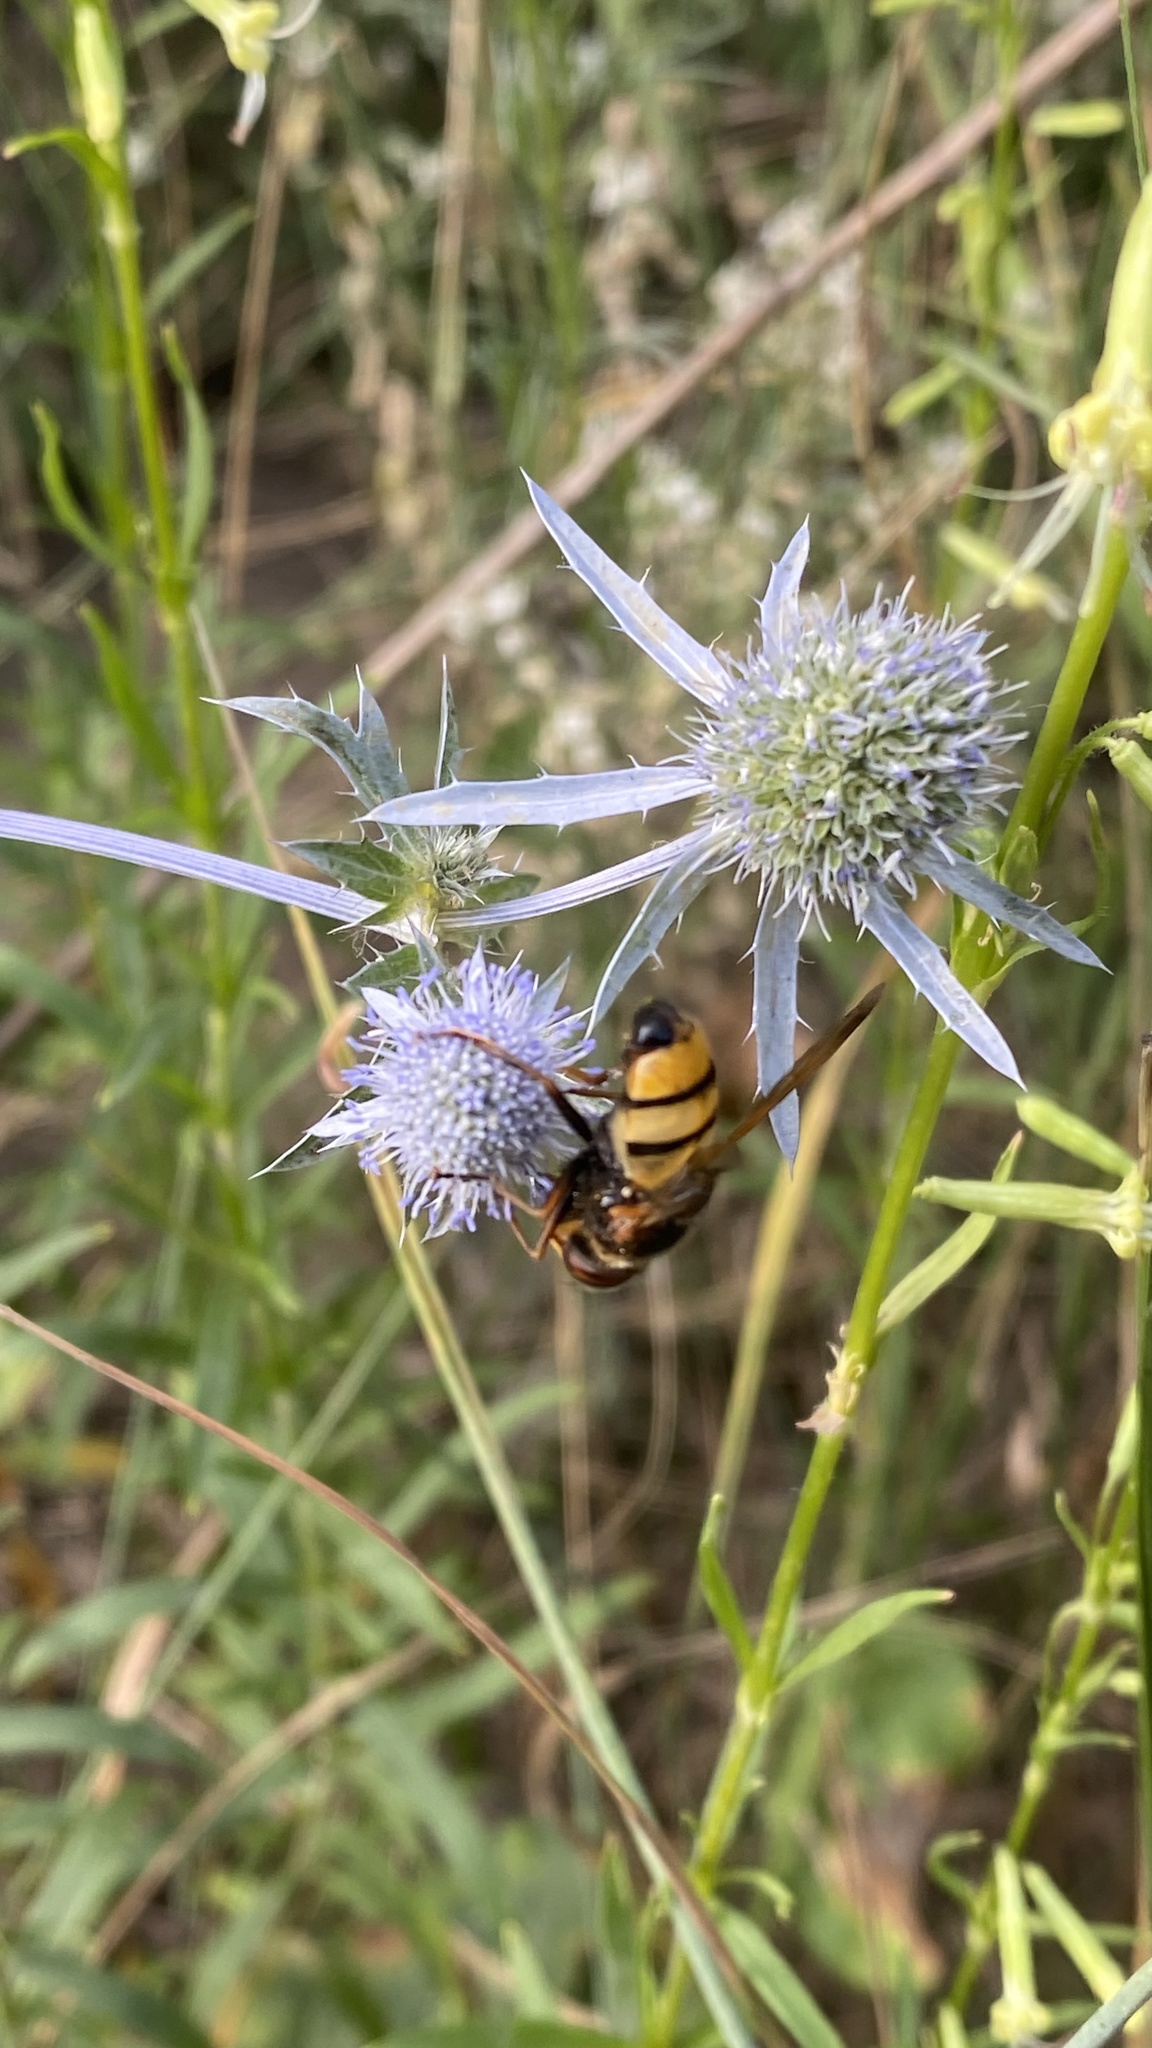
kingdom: Animalia
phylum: Arthropoda
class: Insecta
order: Diptera
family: Syrphidae
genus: Volucella
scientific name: Volucella inanis
